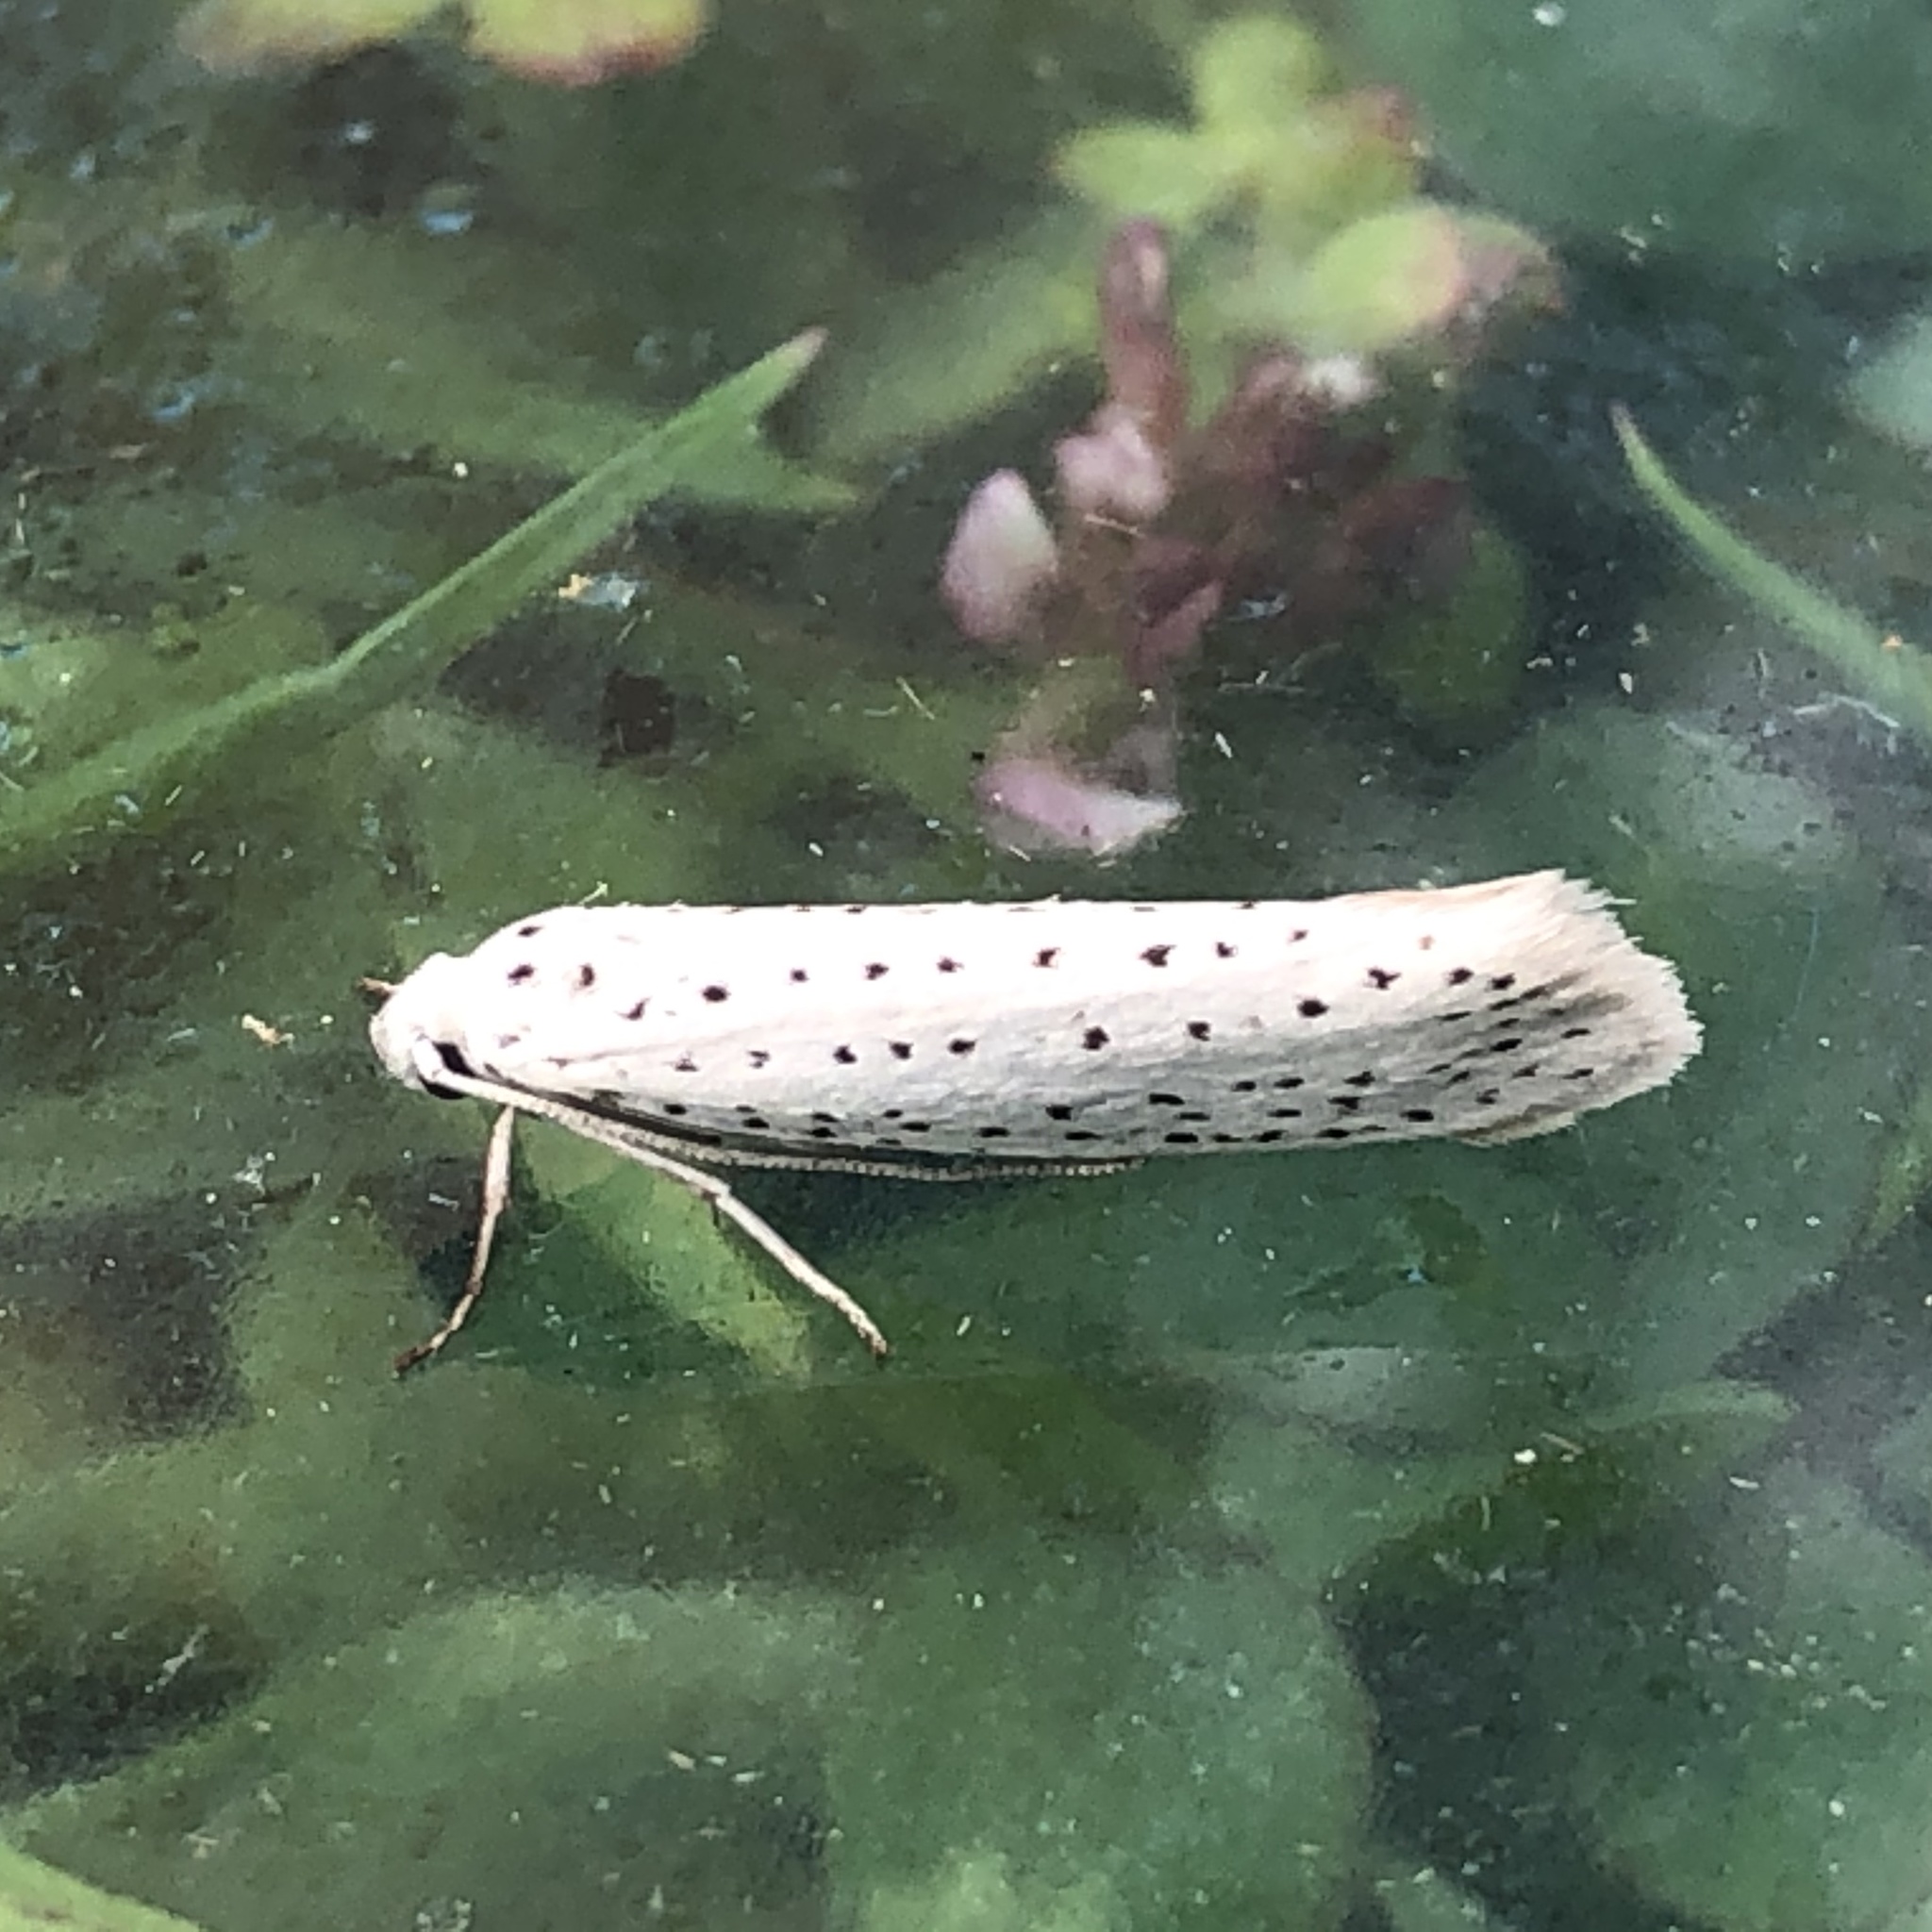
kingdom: Animalia
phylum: Arthropoda
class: Insecta
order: Lepidoptera
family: Yponomeutidae
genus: Yponomeuta
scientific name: Yponomeuta evonymella
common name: Bird-cherry ermine
